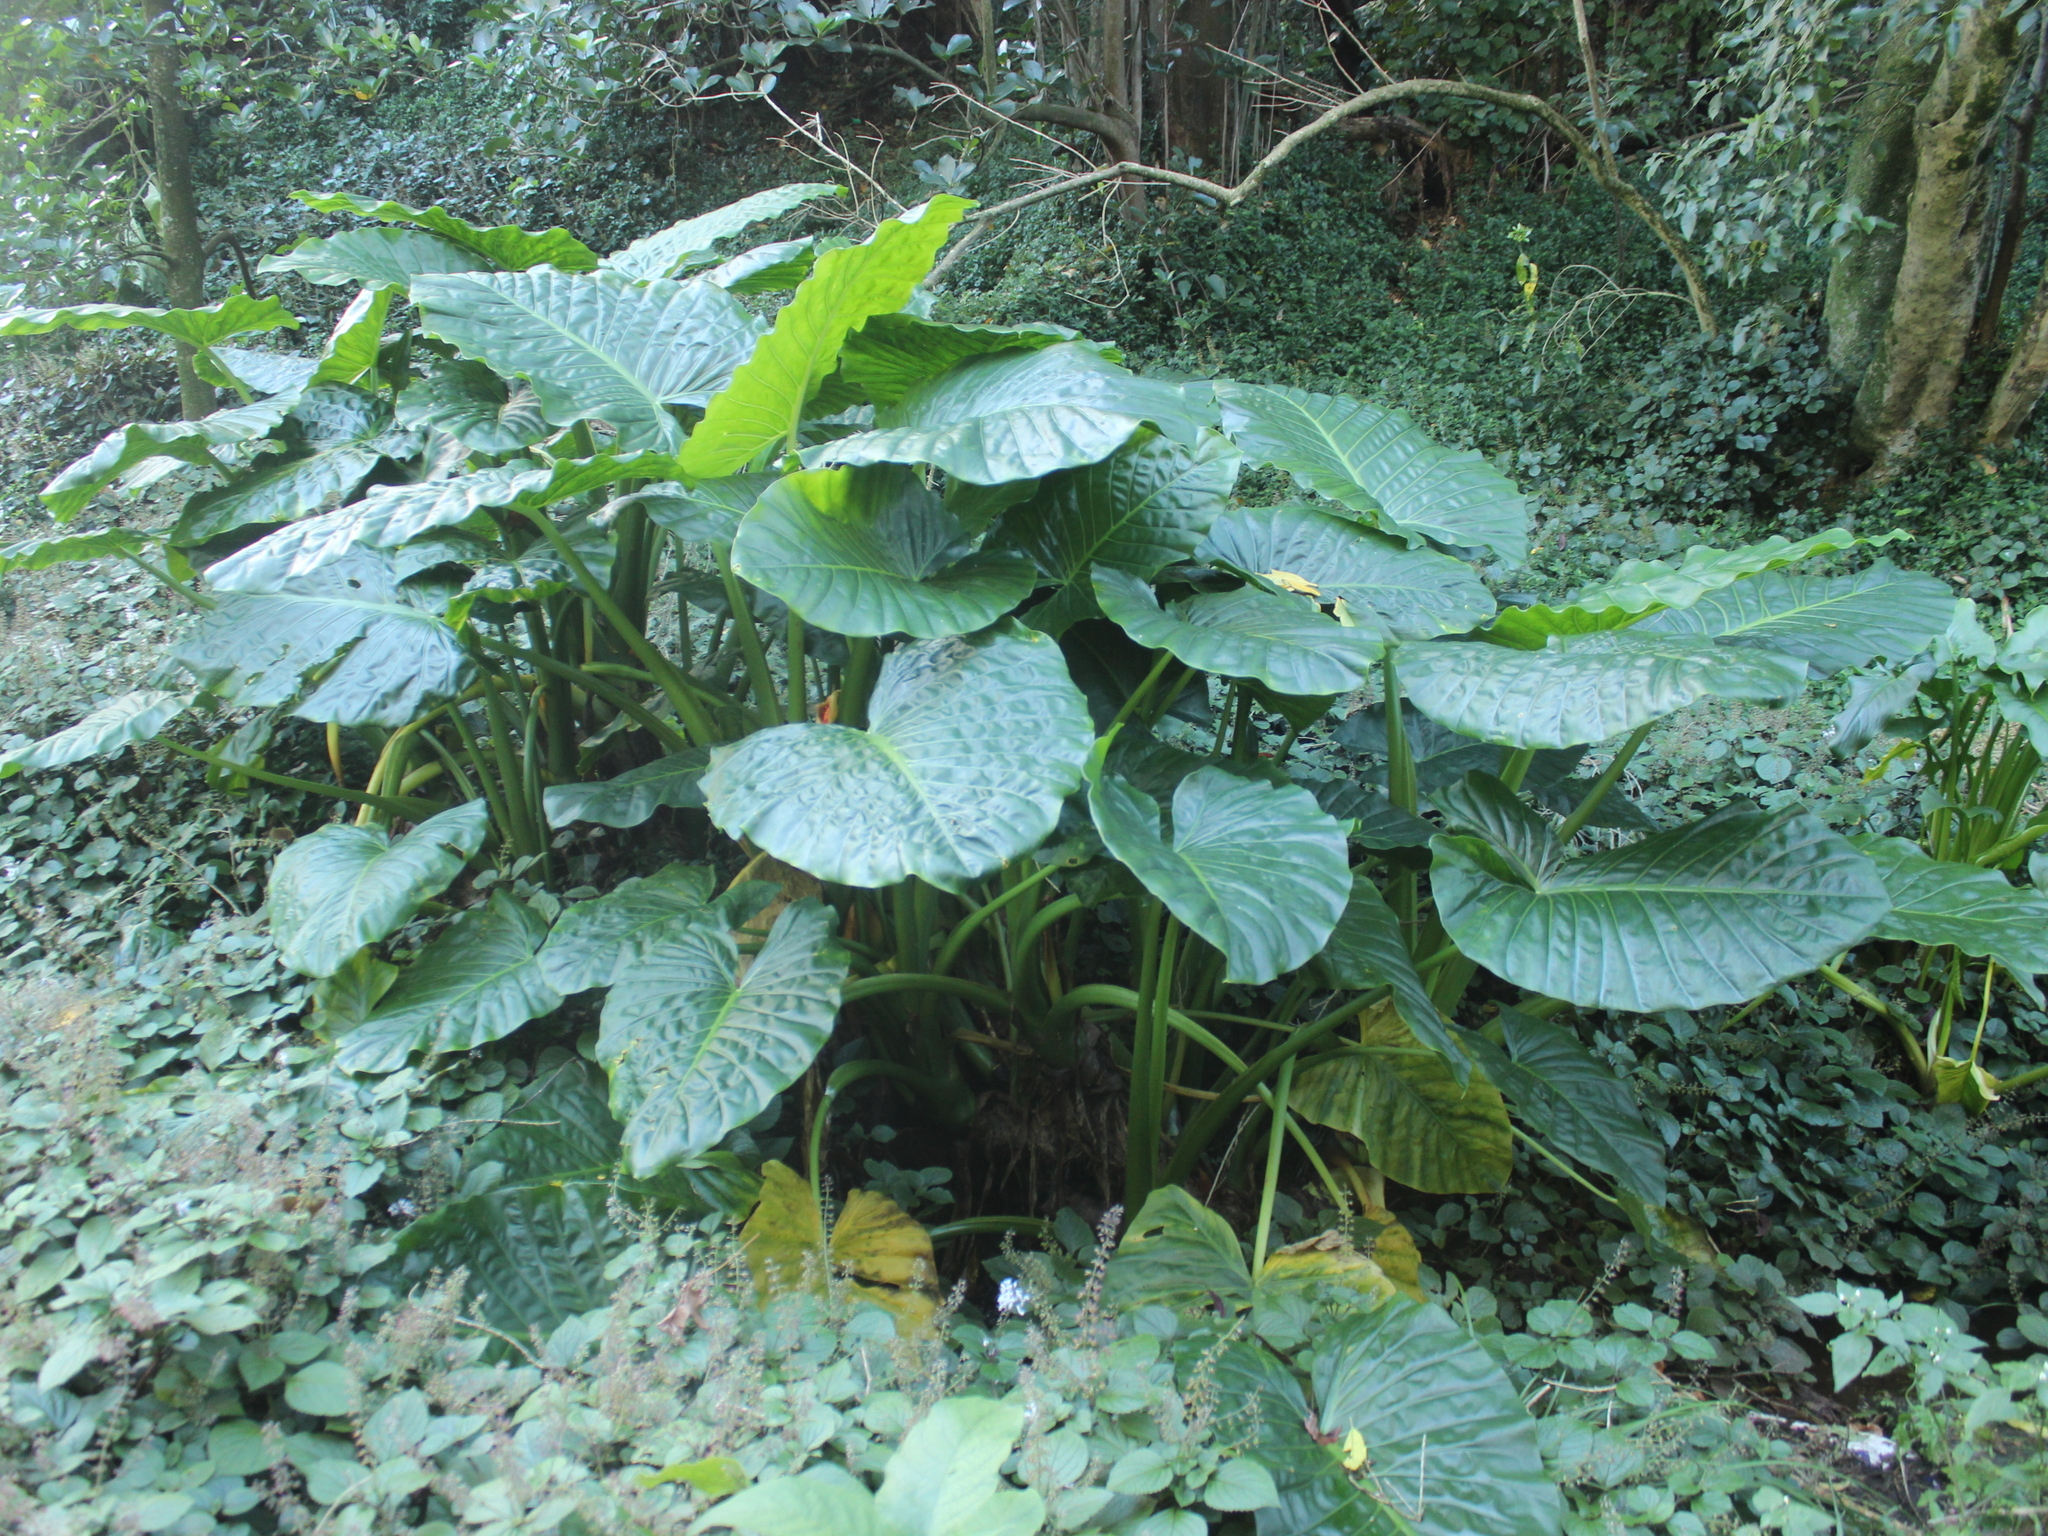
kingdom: Plantae
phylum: Tracheophyta
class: Liliopsida
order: Alismatales
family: Araceae
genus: Alocasia
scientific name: Alocasia brisbanensis
